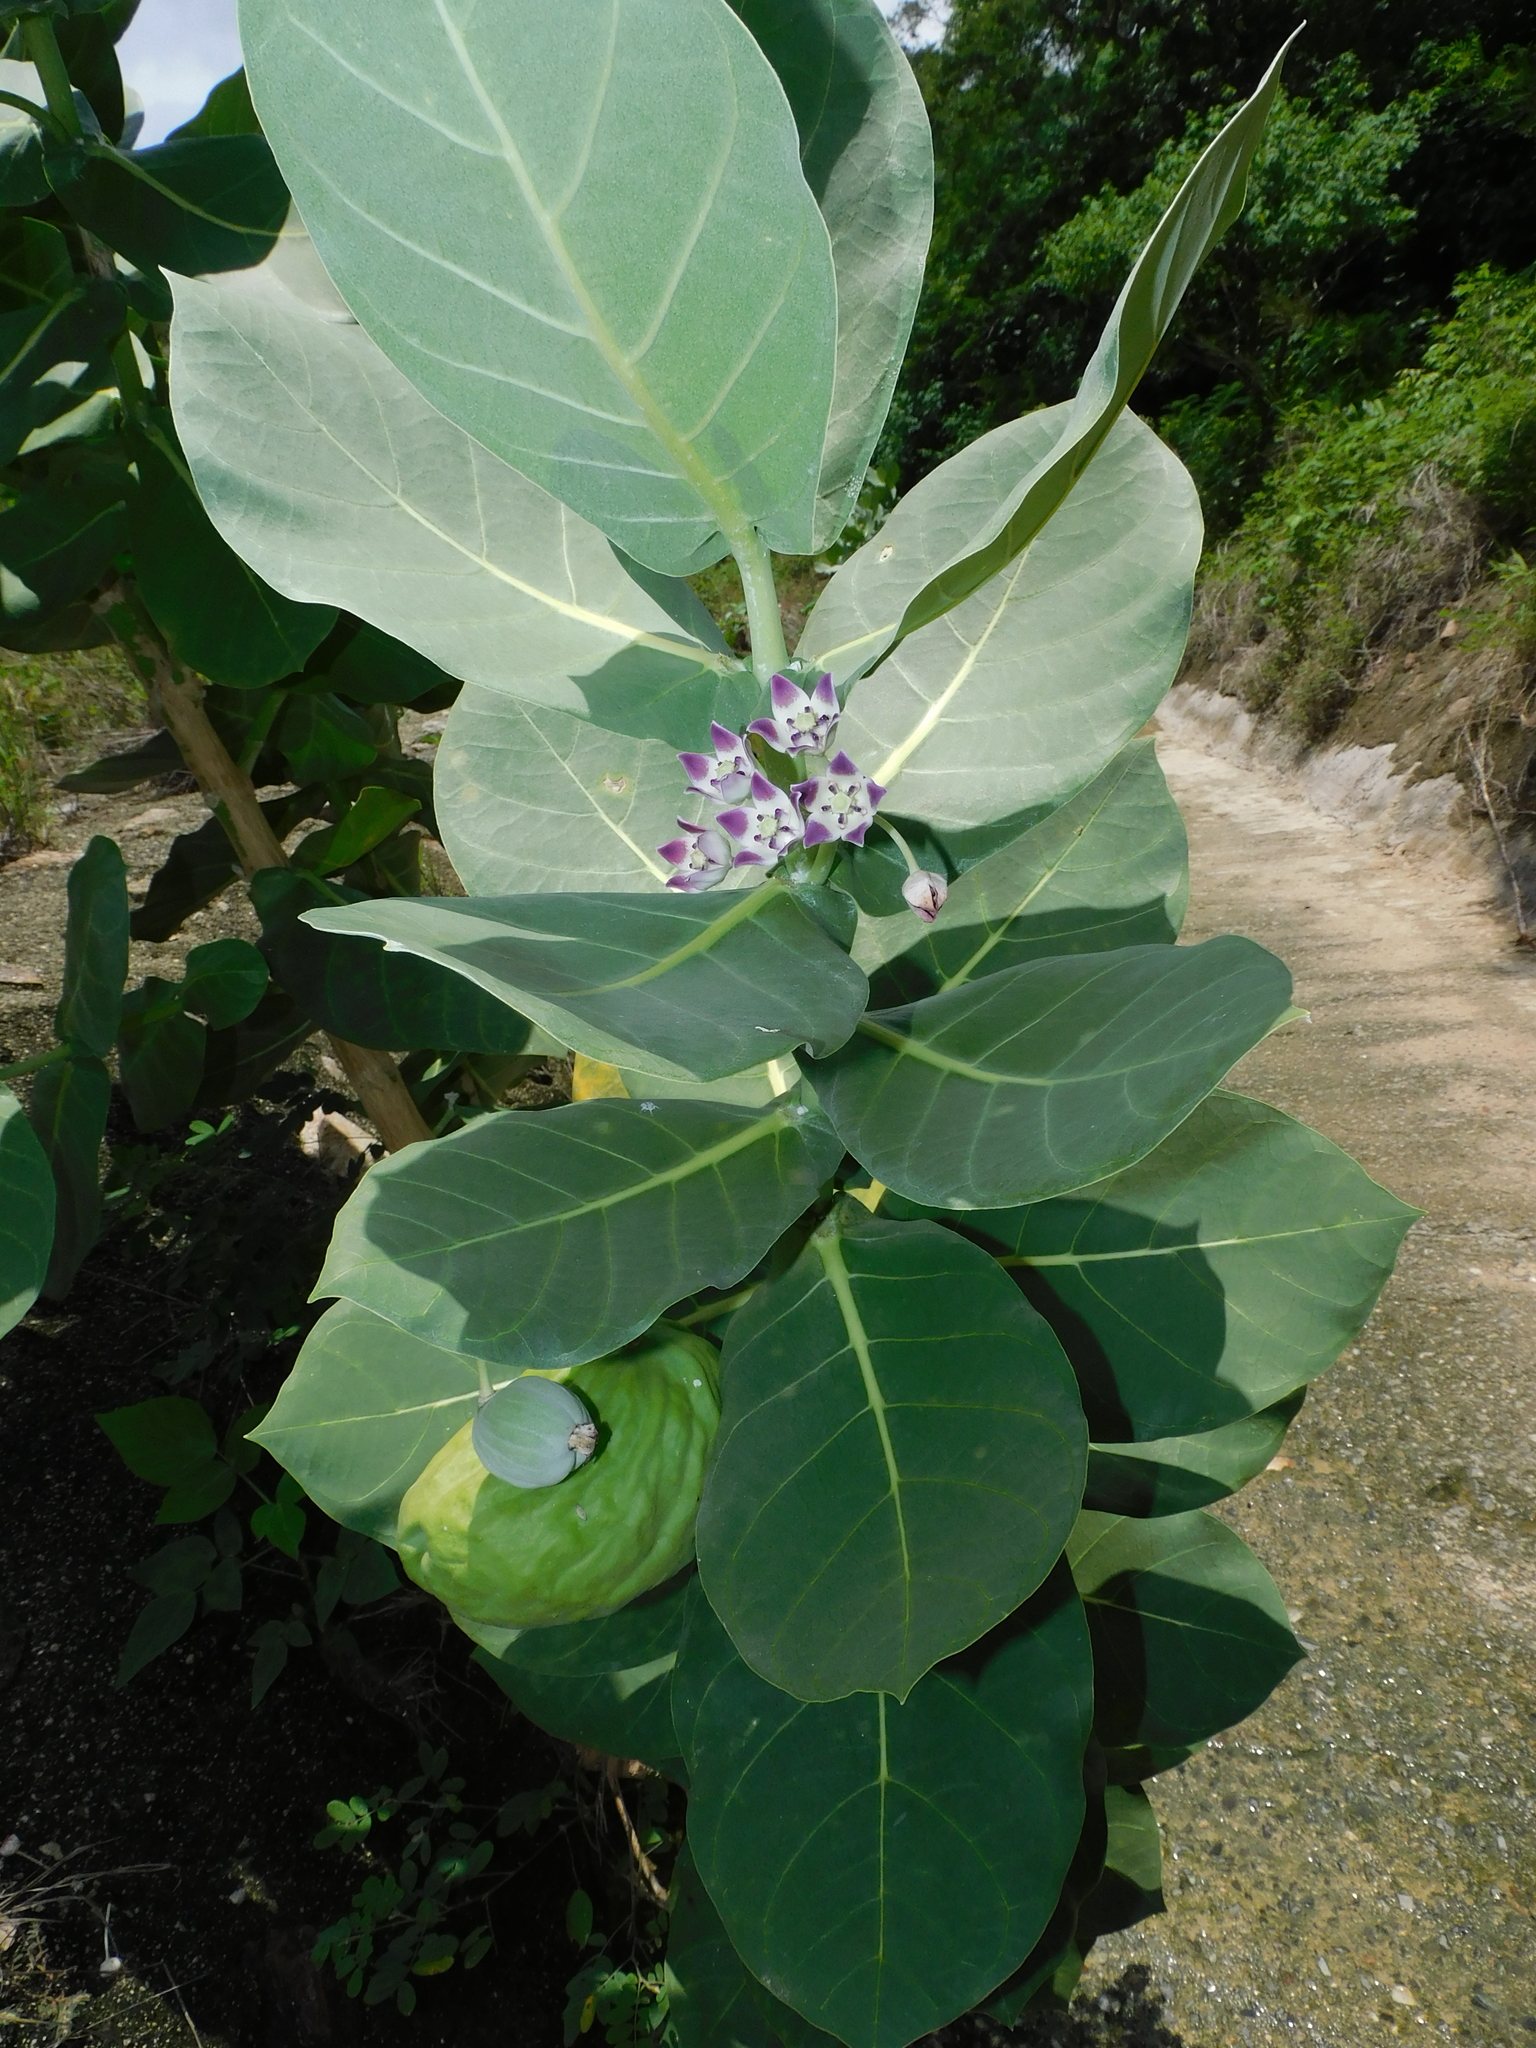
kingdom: Plantae
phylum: Tracheophyta
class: Magnoliopsida
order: Gentianales
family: Apocynaceae
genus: Calotropis
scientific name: Calotropis procera
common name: Roostertree
